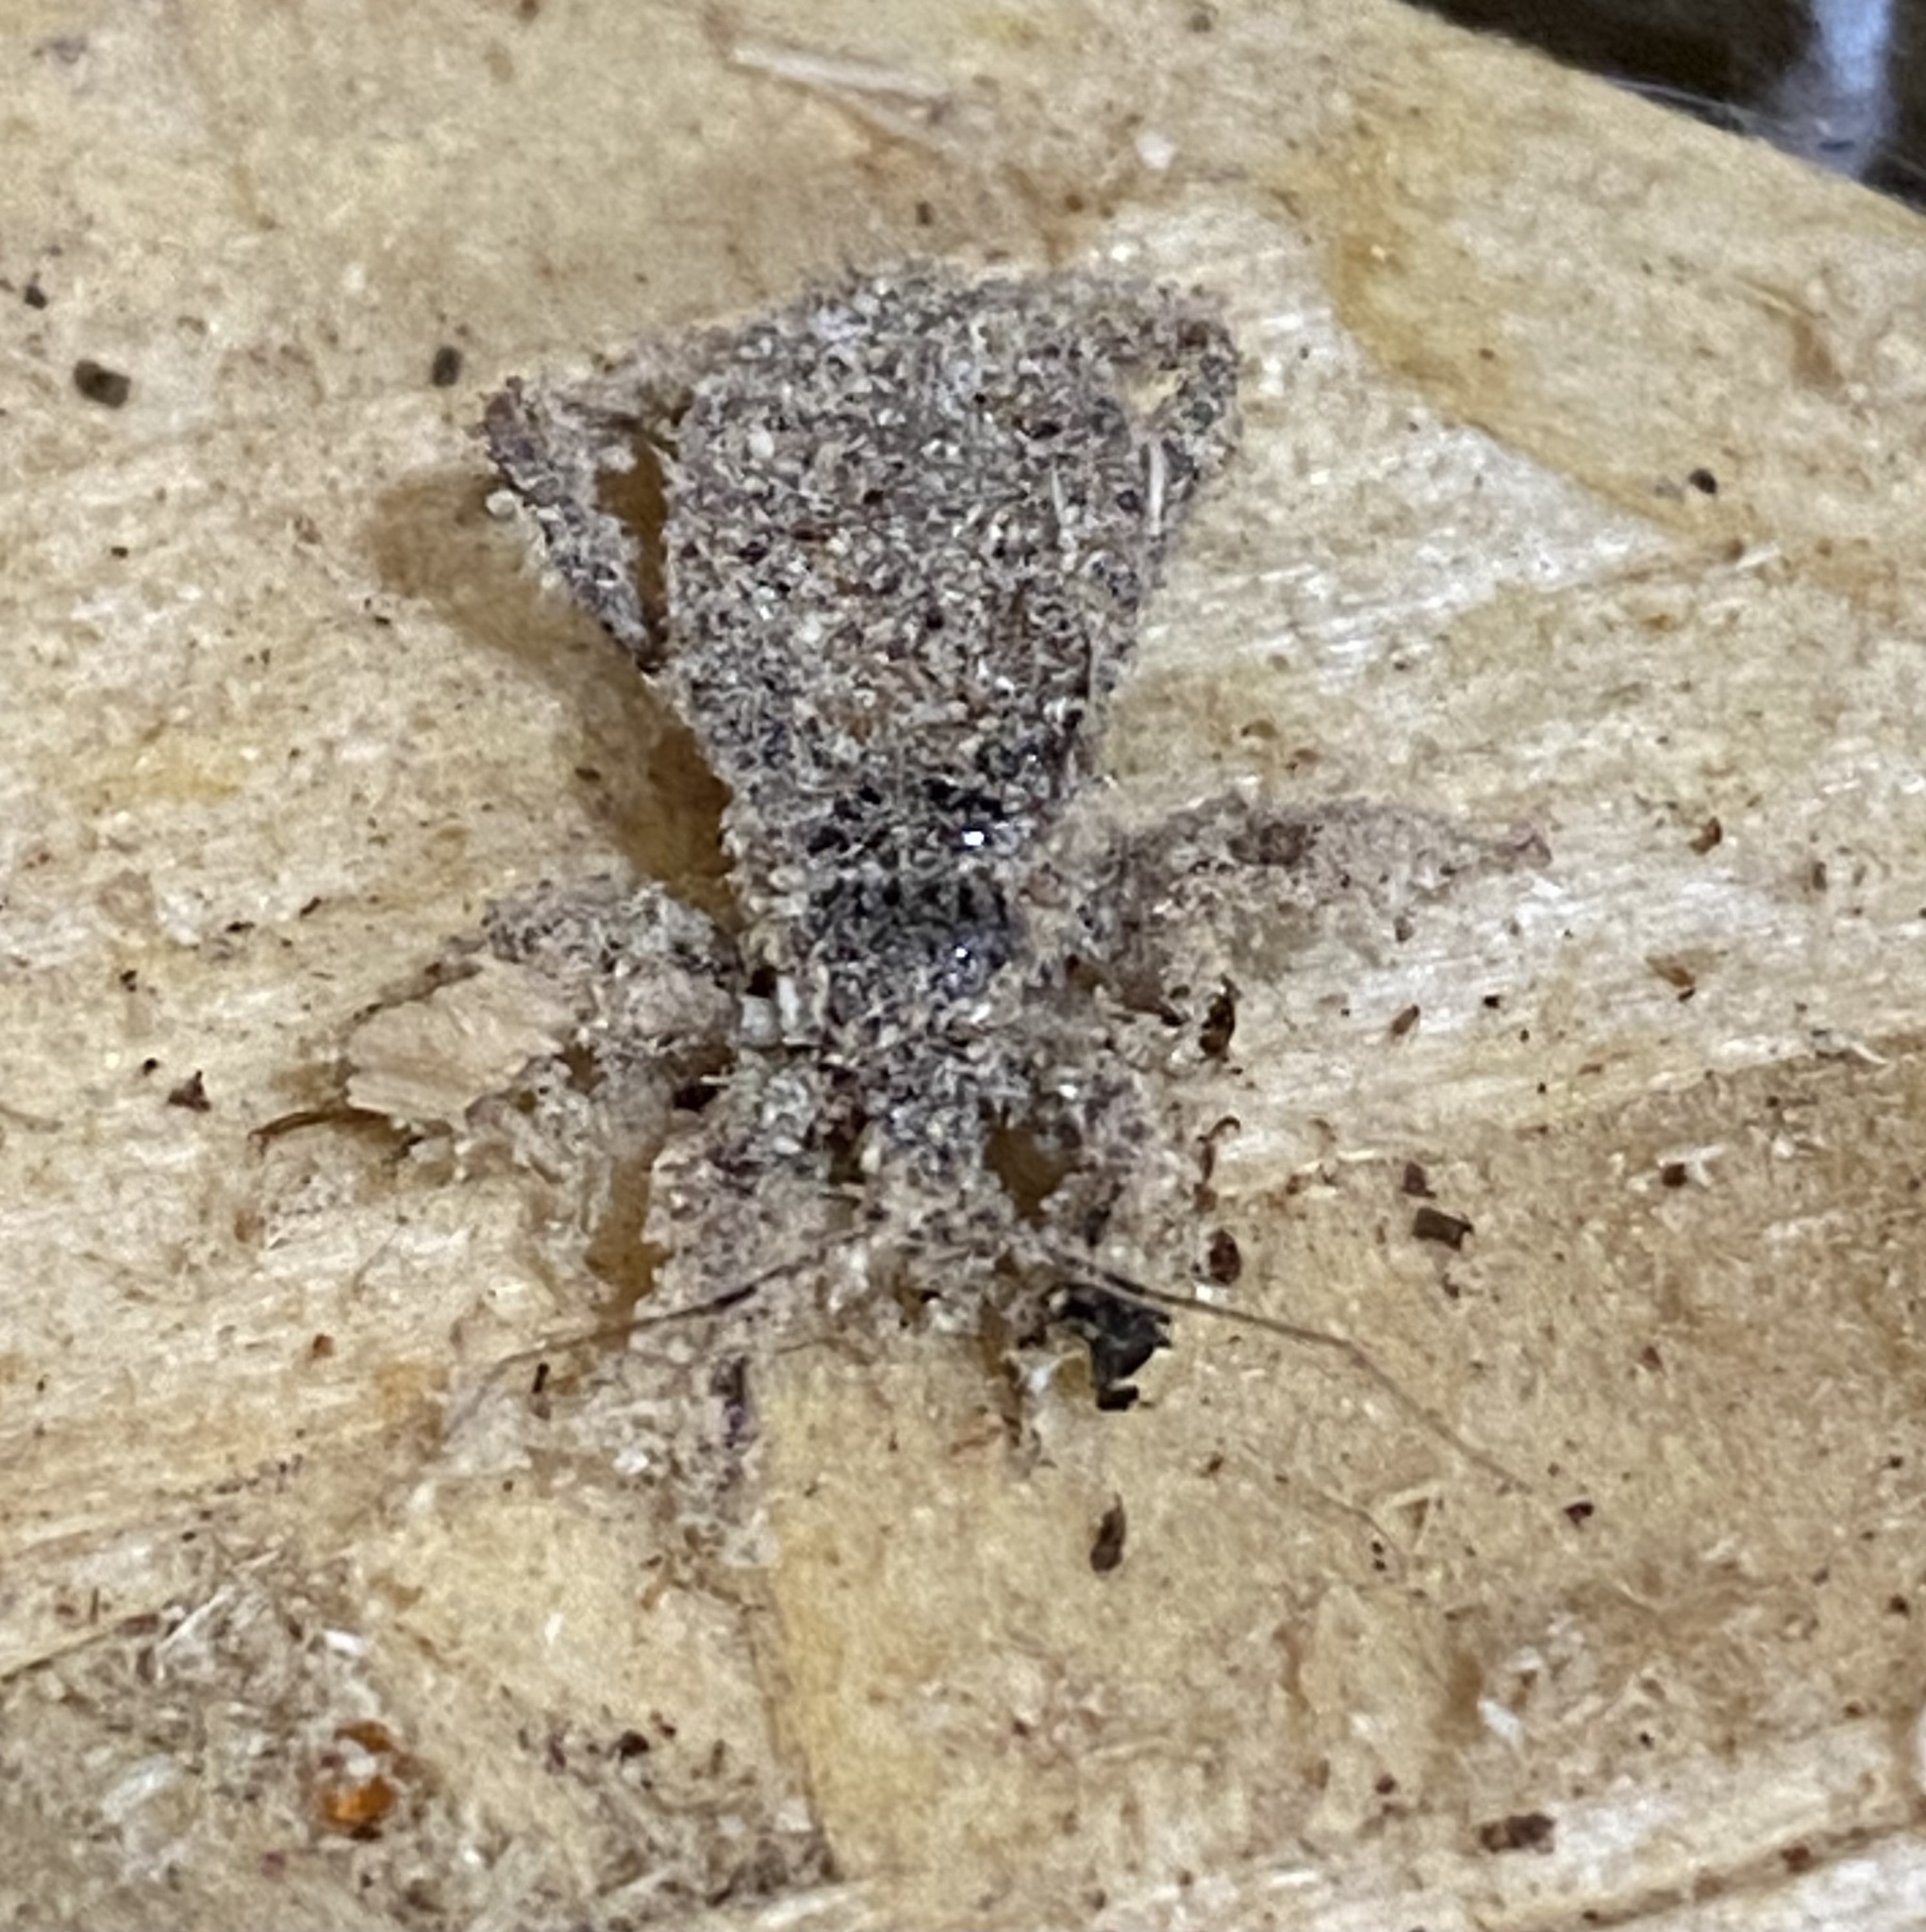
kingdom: Animalia
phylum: Arthropoda
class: Insecta
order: Hemiptera
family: Reduviidae
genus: Reduvius
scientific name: Reduvius personatus
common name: Masked hunter
